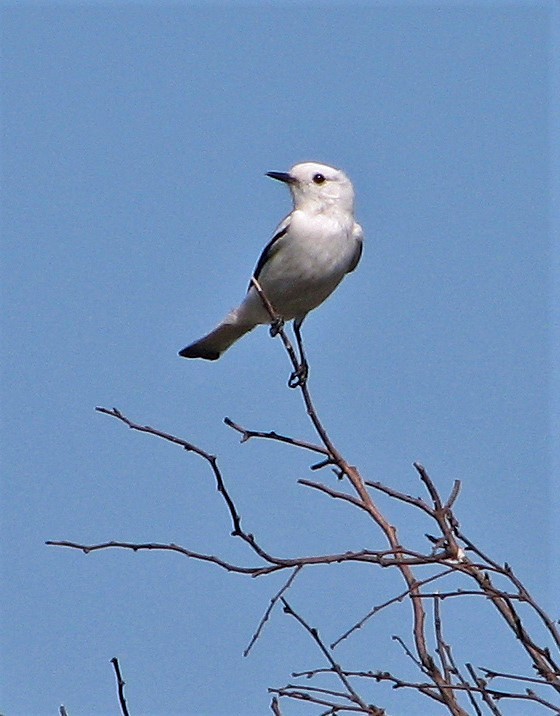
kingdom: Animalia
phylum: Chordata
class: Aves
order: Passeriformes
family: Tyrannidae
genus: Xolmis
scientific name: Xolmis irupero
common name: White monjita
